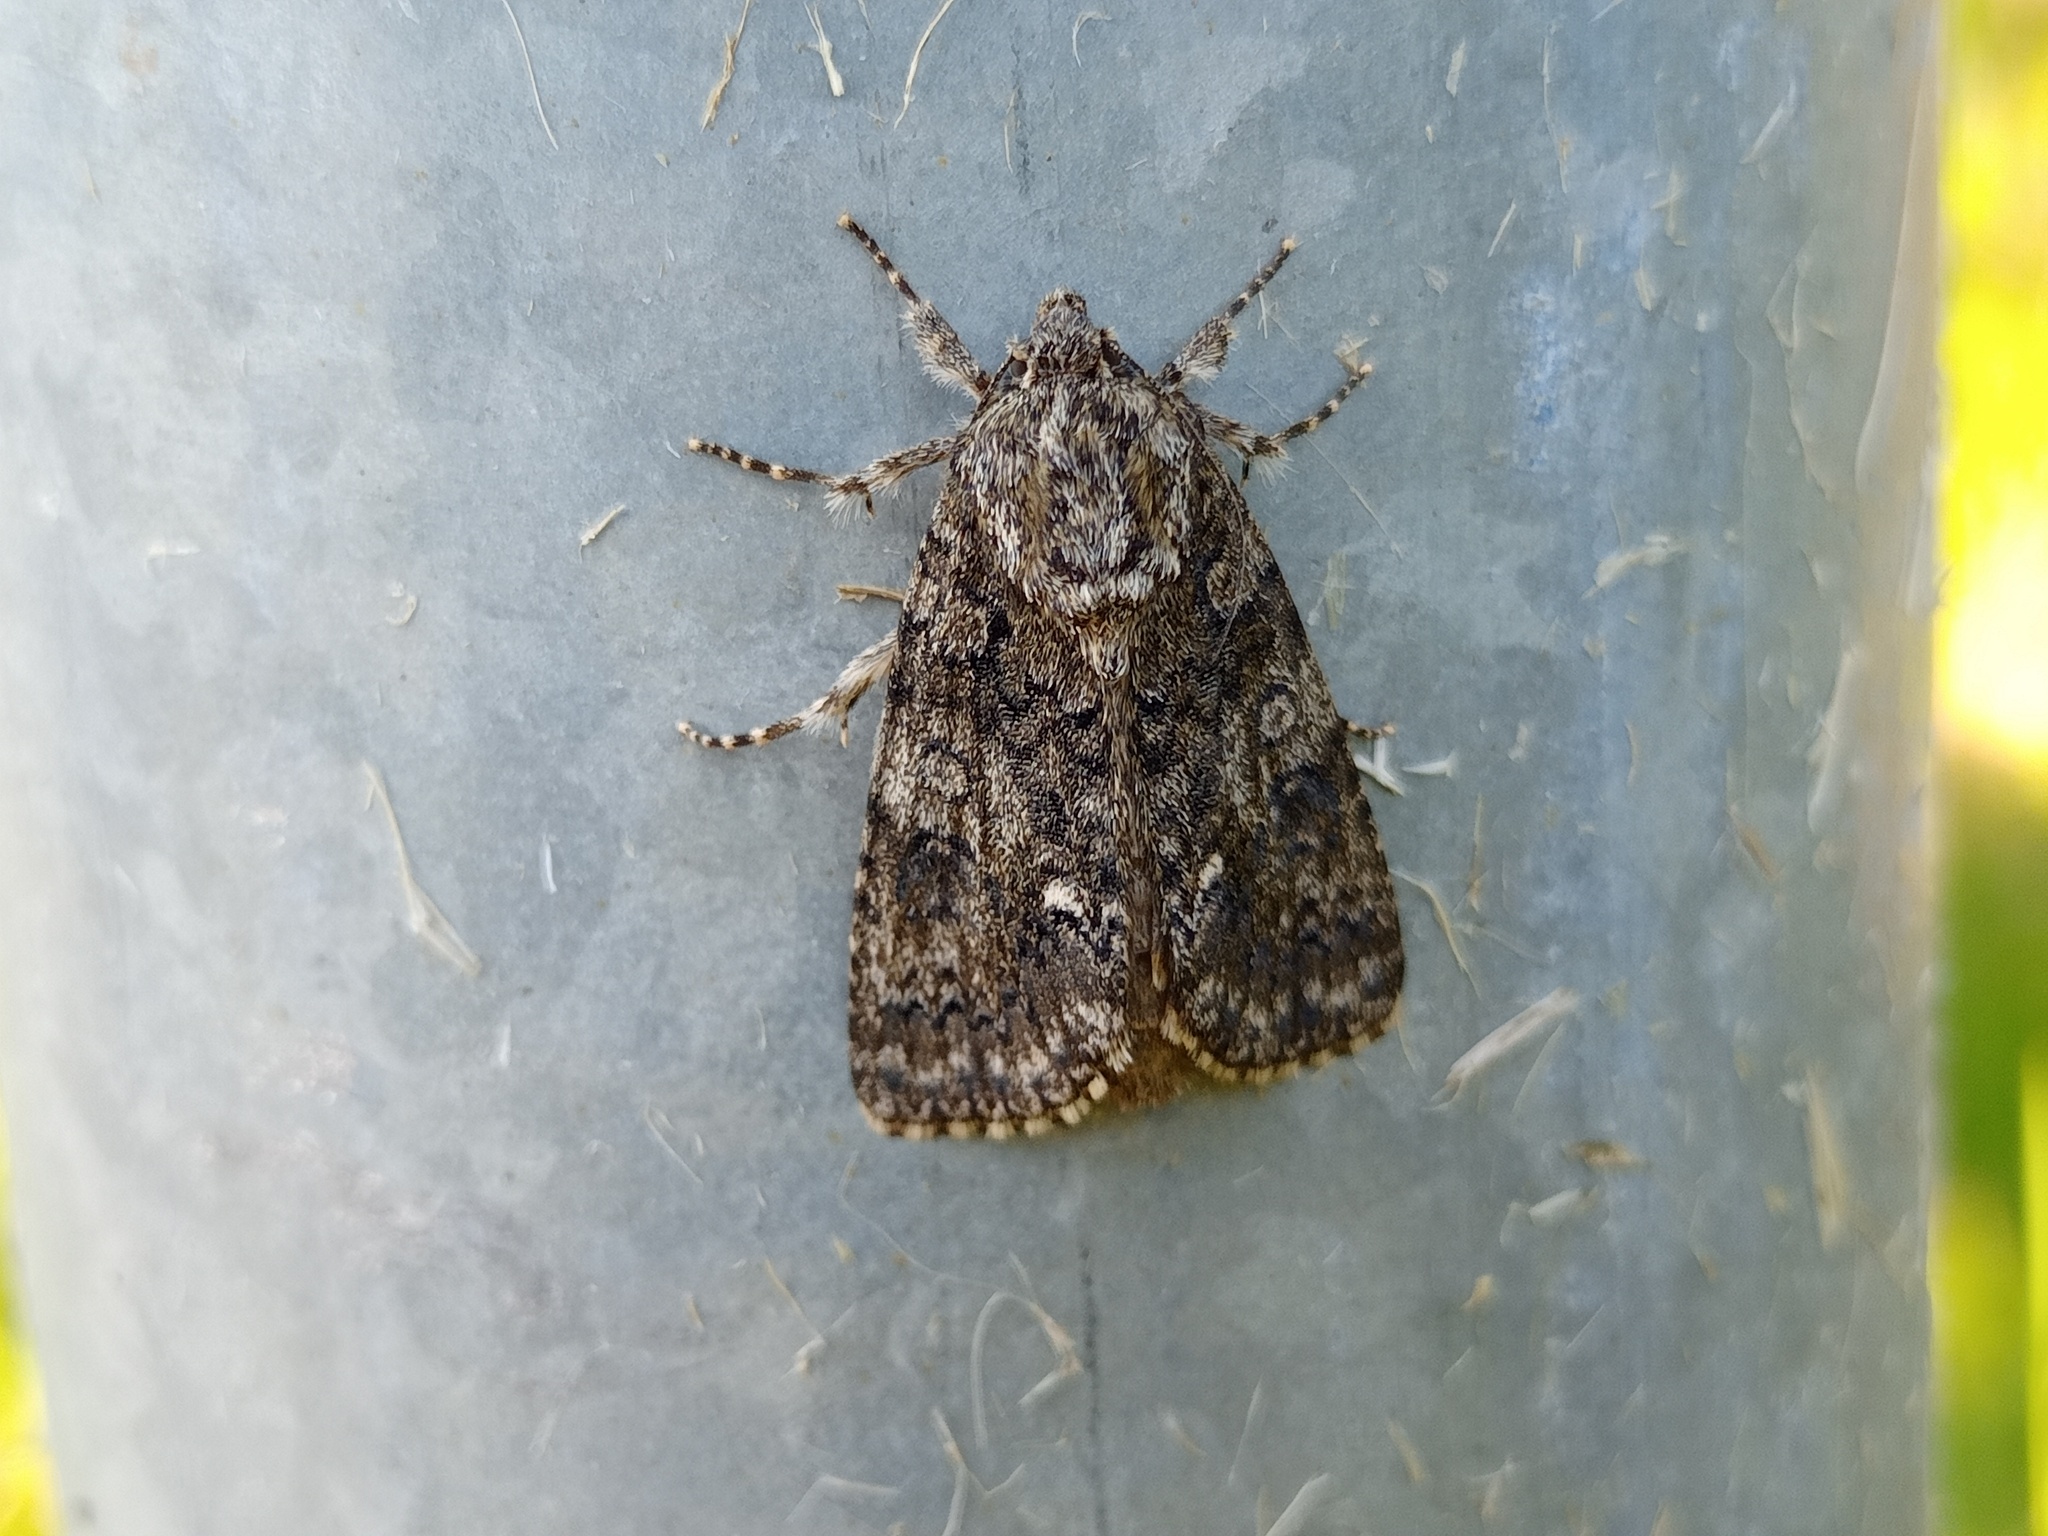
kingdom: Animalia
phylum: Arthropoda
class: Insecta
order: Lepidoptera
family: Noctuidae
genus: Acronicta
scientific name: Acronicta rumicis
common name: Knot grass
